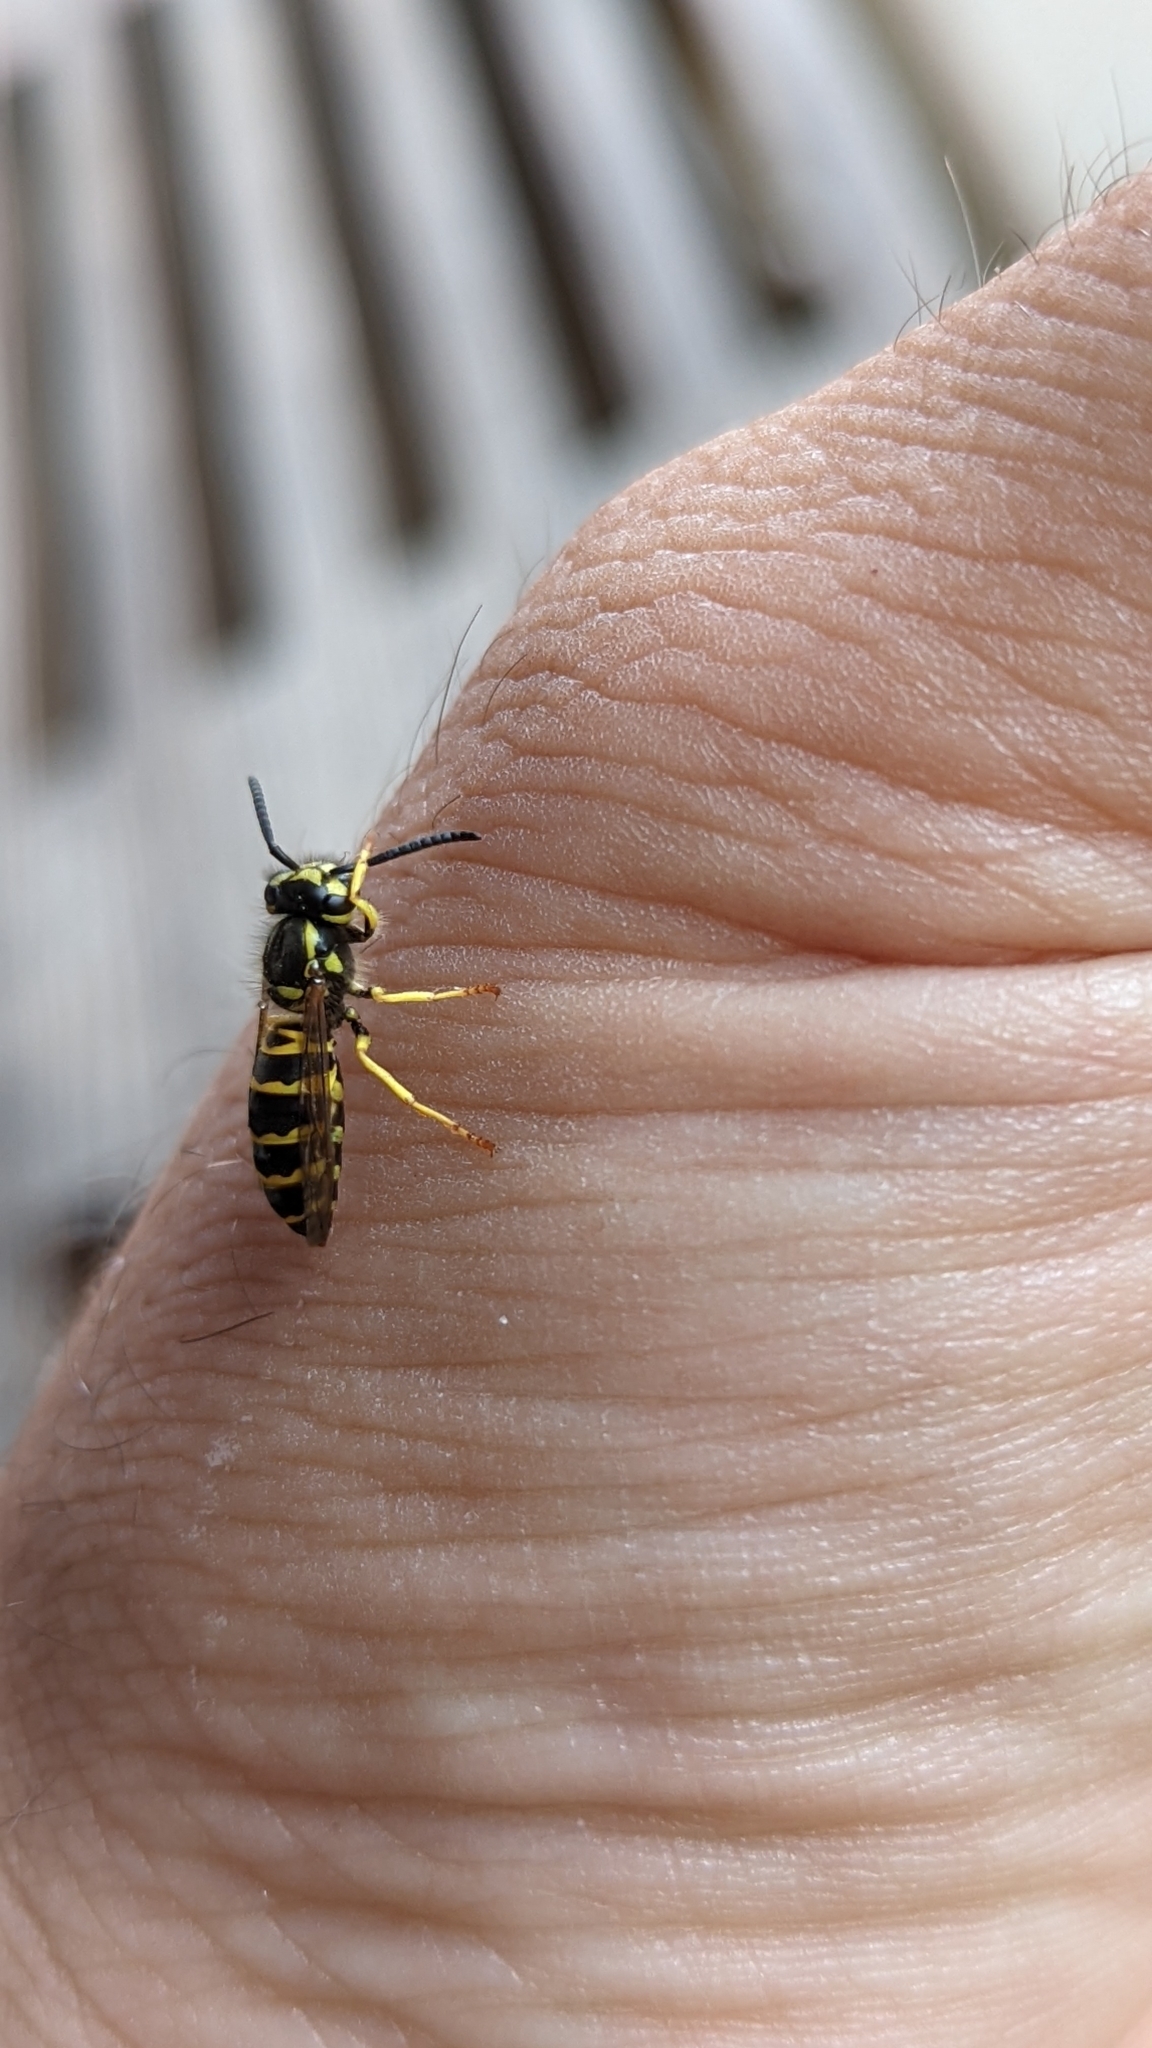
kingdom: Animalia
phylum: Arthropoda
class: Insecta
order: Hymenoptera
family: Vespidae
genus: Vespula
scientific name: Vespula maculifrons
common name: Eastern yellowjacket
